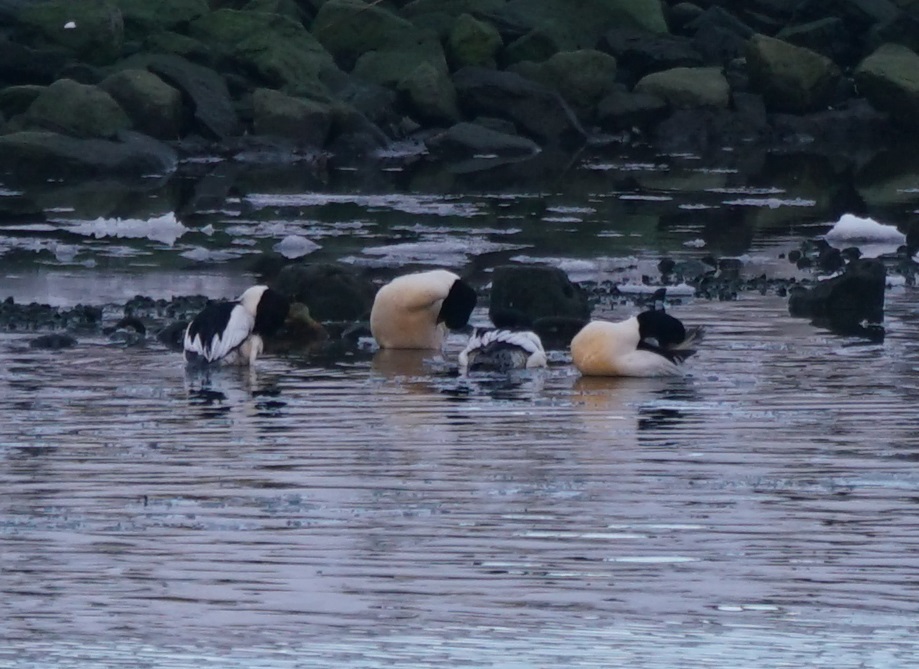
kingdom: Animalia
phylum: Chordata
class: Aves
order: Anseriformes
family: Anatidae
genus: Mergus
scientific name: Mergus merganser
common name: Common merganser
